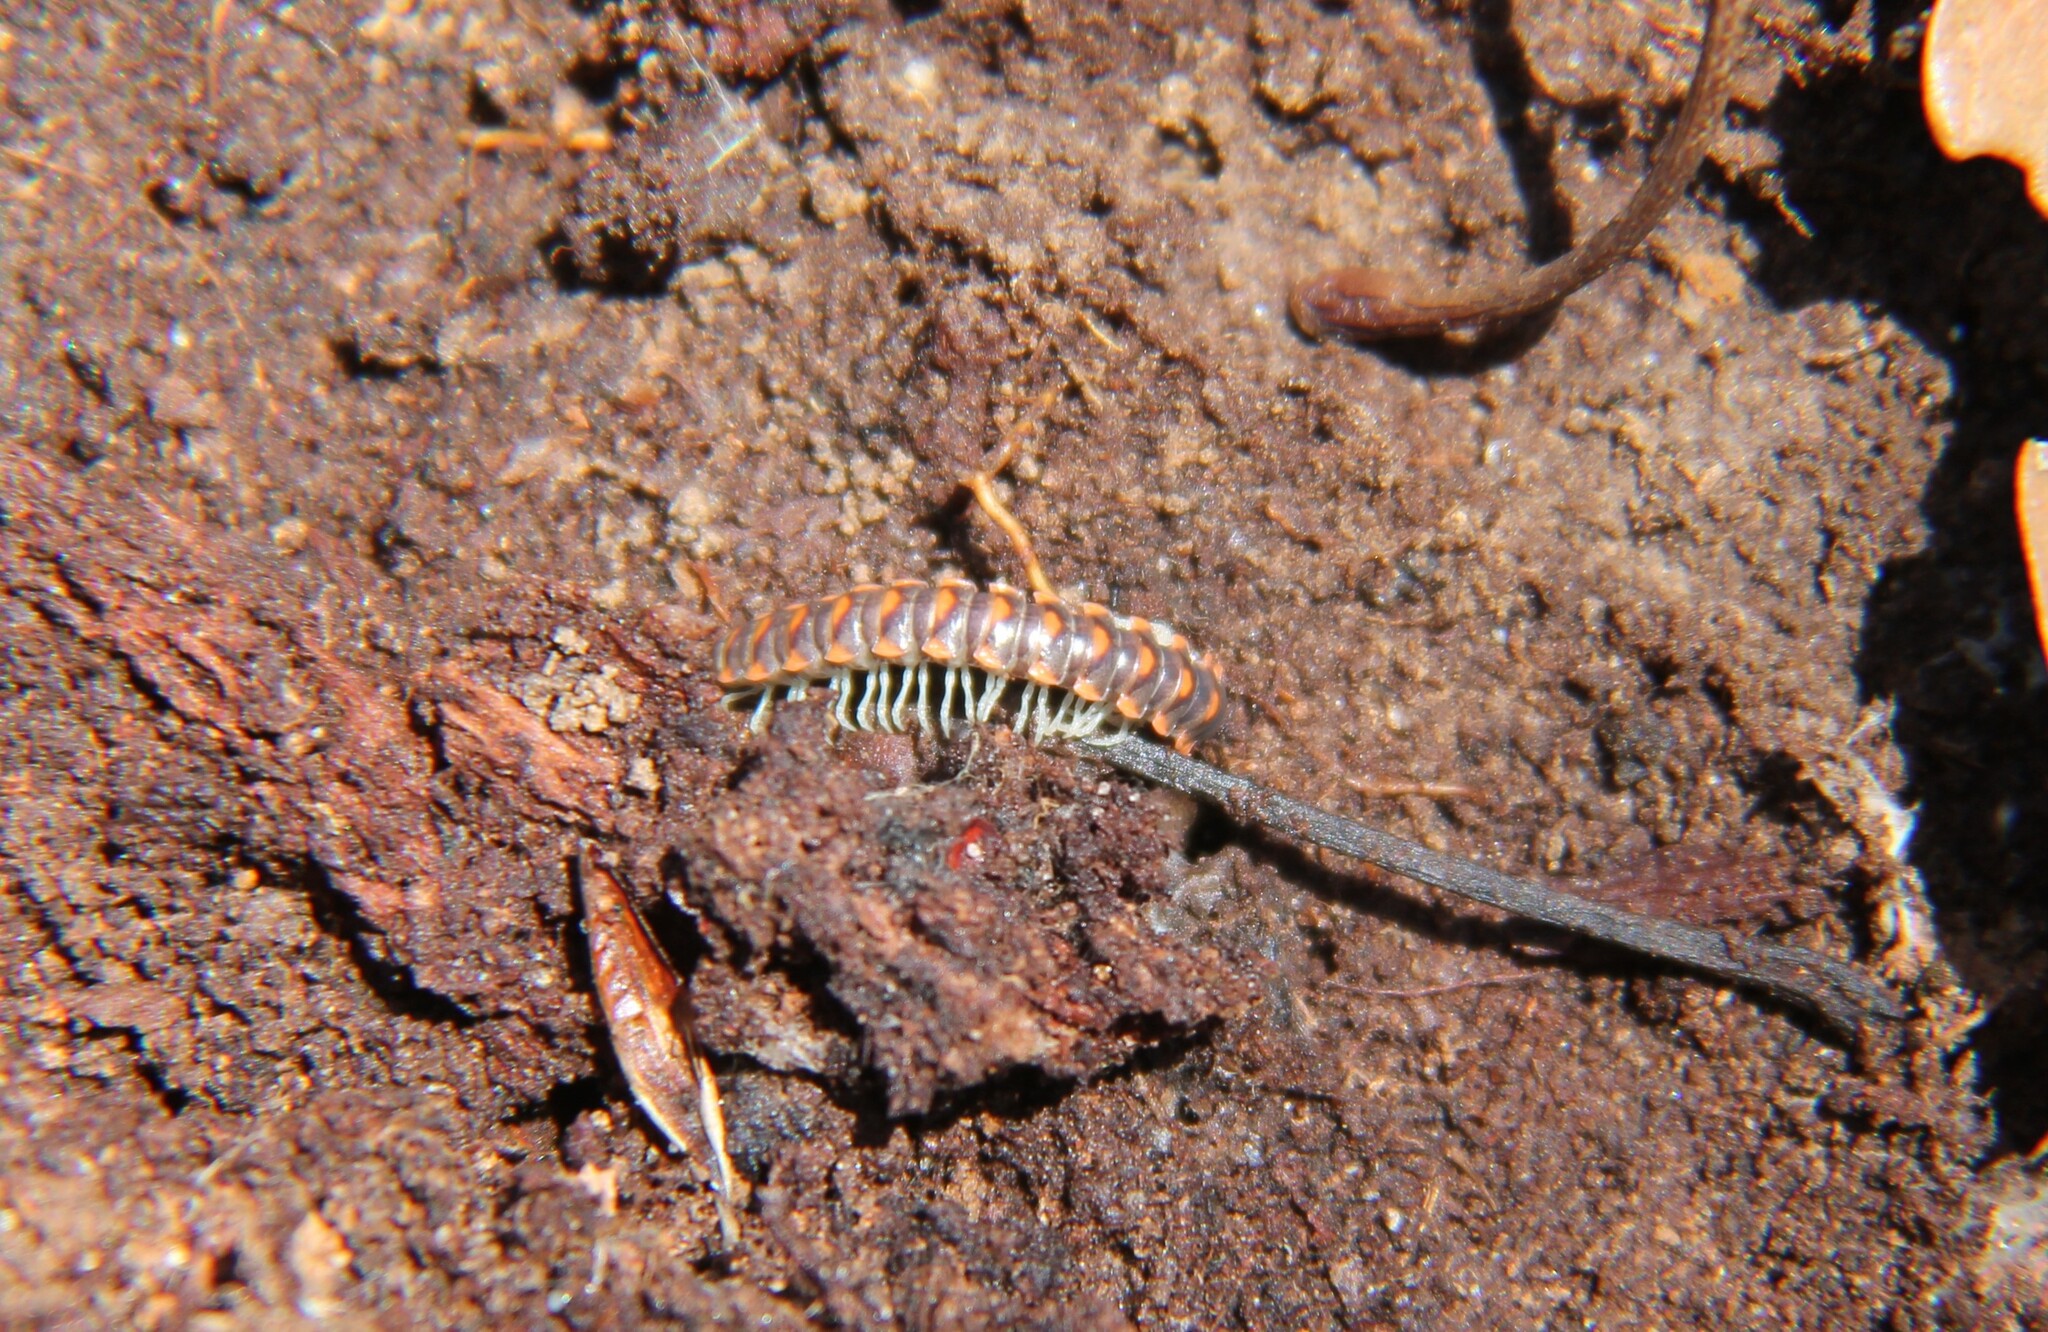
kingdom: Animalia
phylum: Arthropoda
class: Diplopoda
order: Polydesmida
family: Xystodesmidae
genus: Euryurus
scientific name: Euryurus leachii
